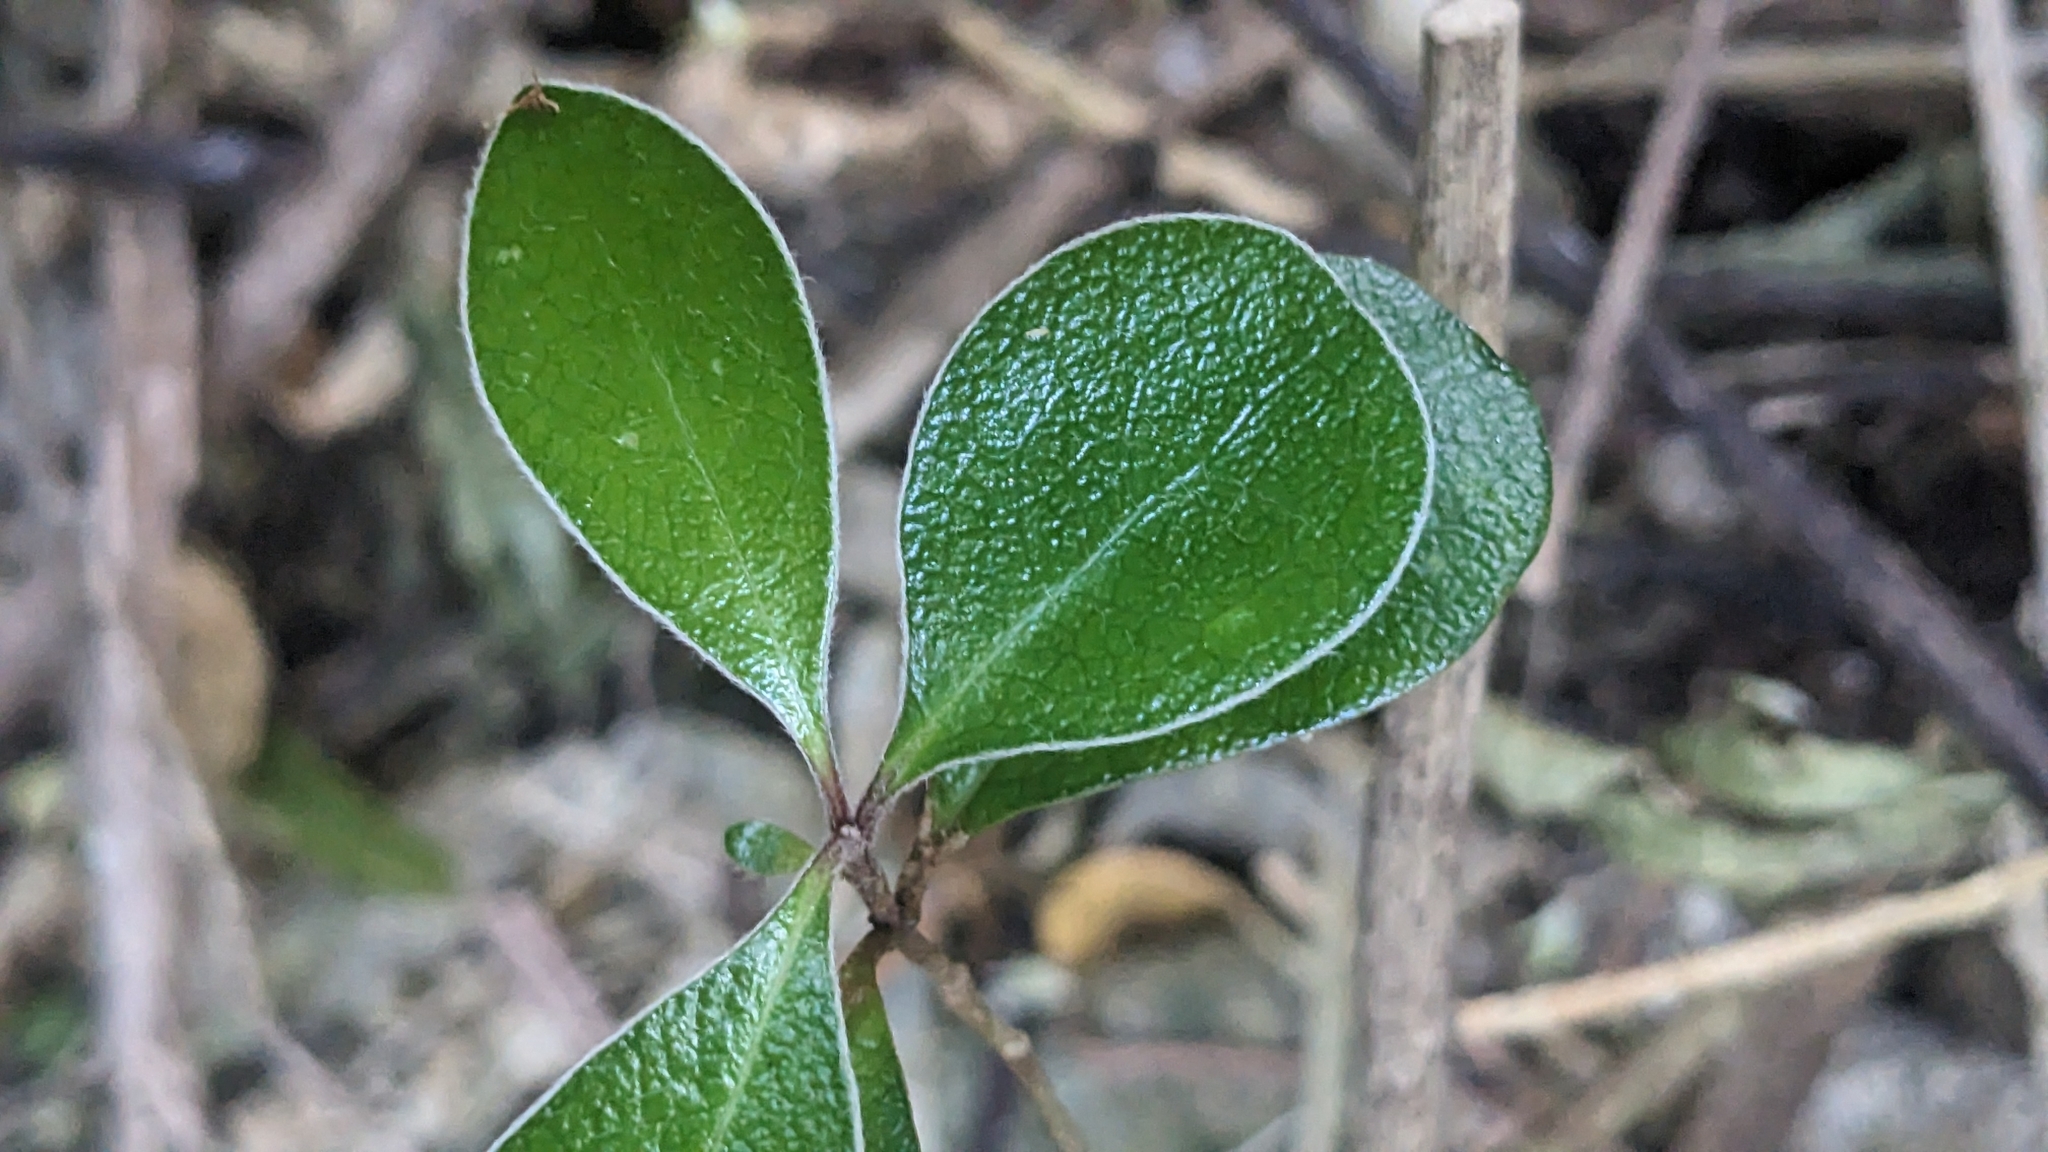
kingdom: Plantae
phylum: Tracheophyta
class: Magnoliopsida
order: Apiales
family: Pittosporaceae
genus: Pittosporum
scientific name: Pittosporum crassifolium
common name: Karo
